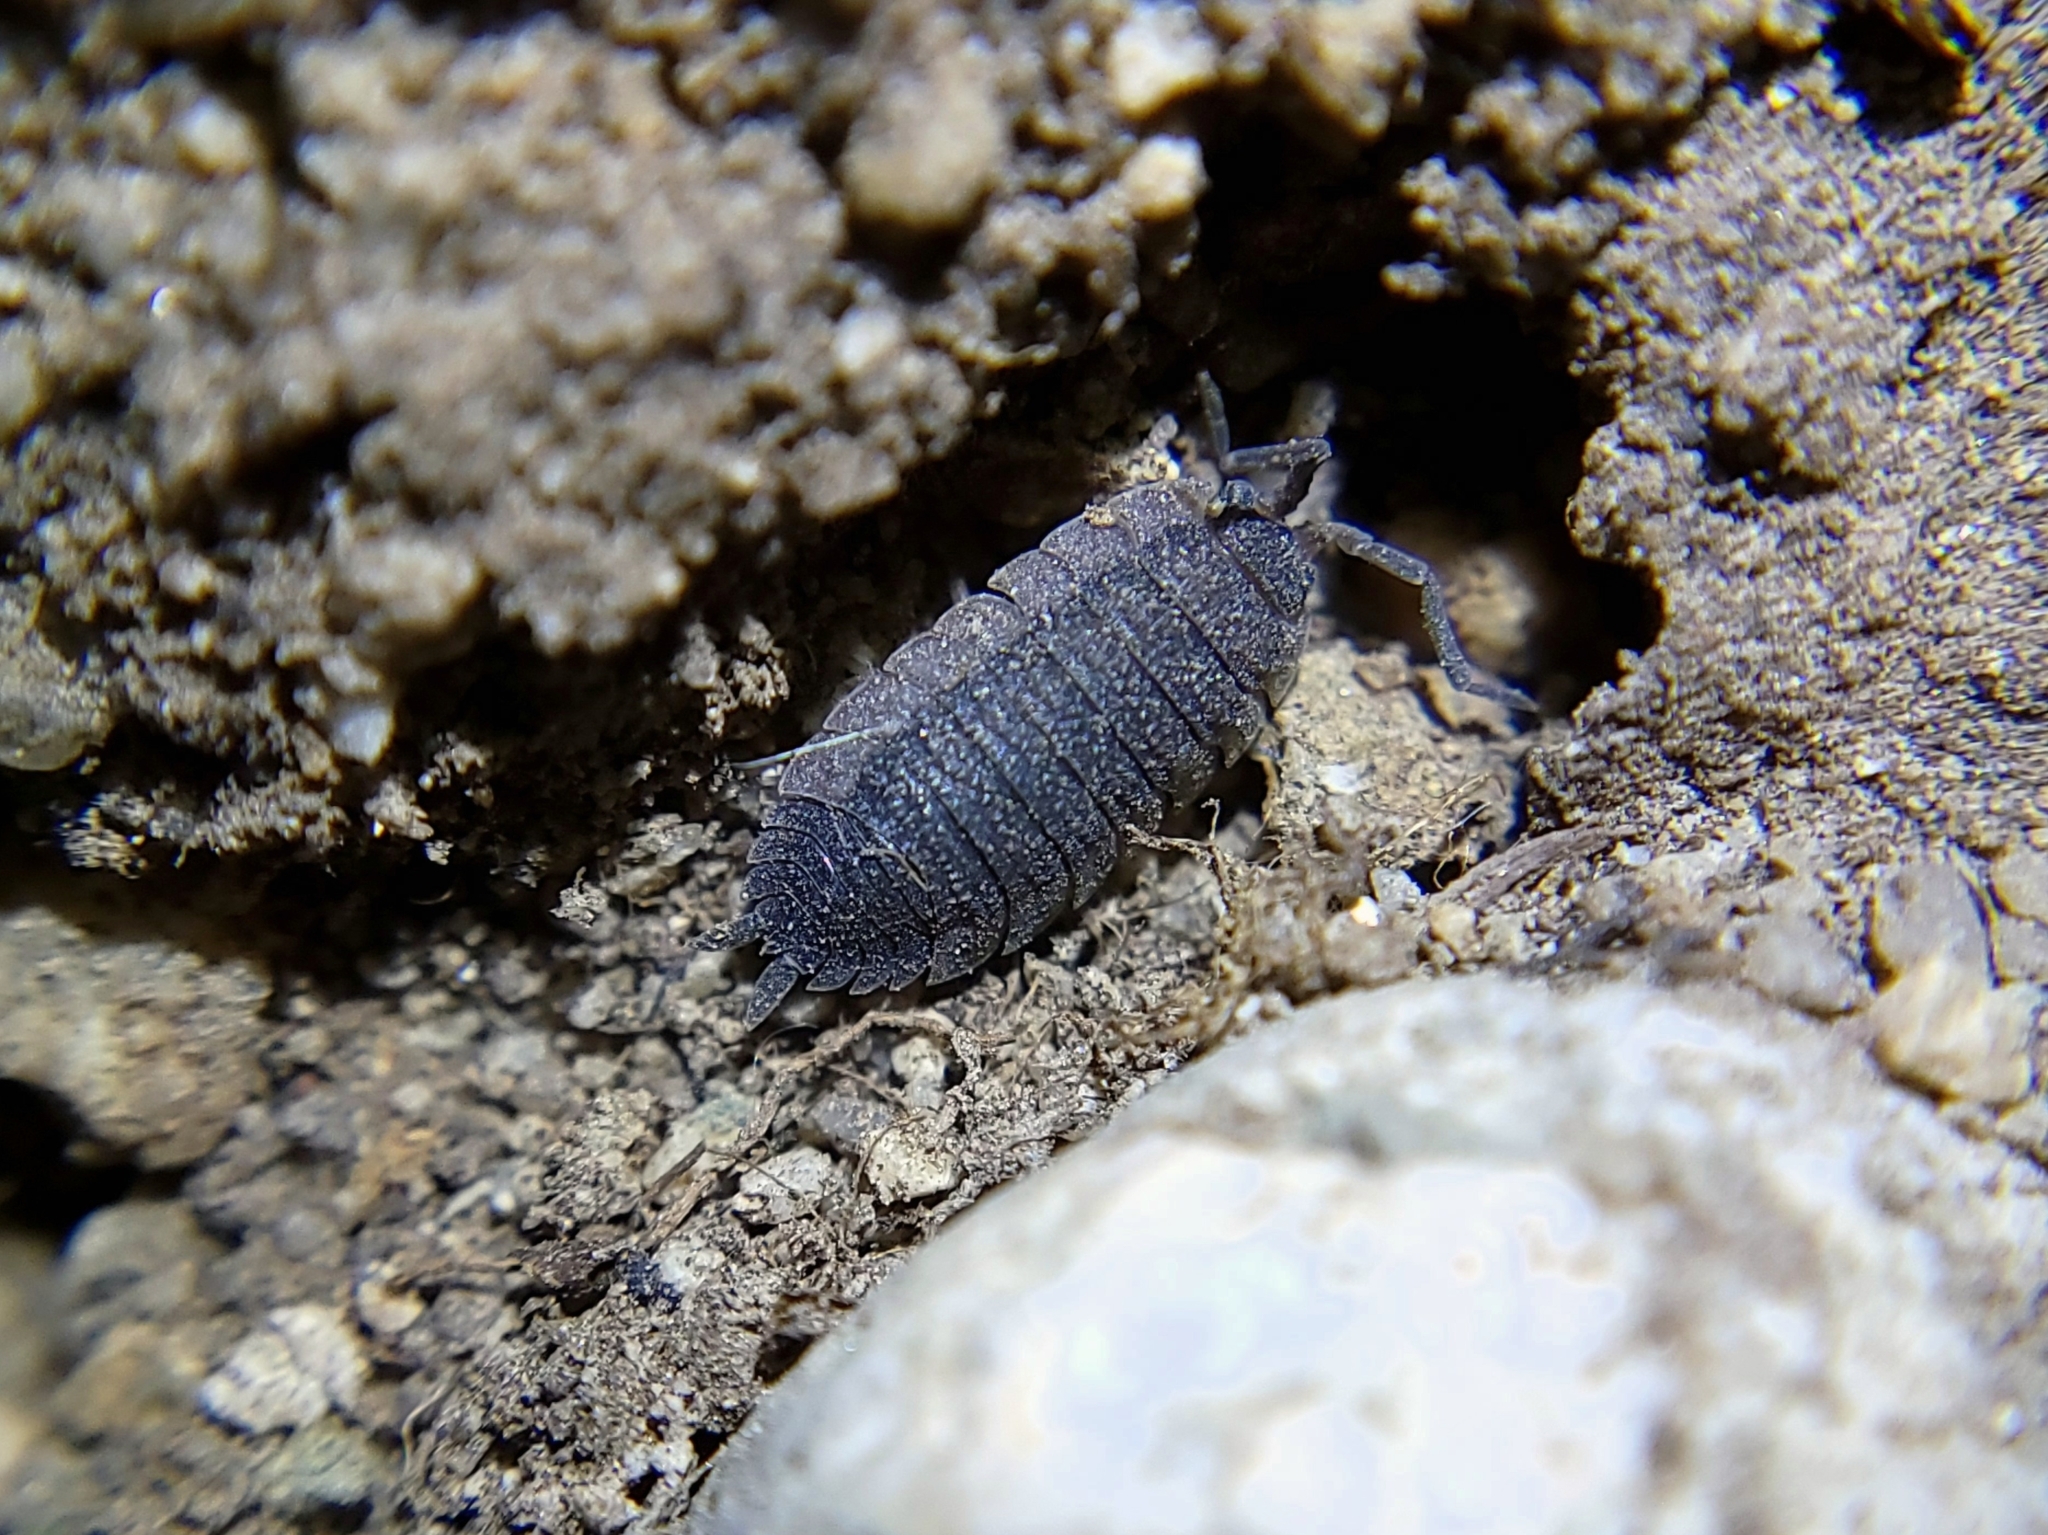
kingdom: Animalia
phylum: Arthropoda
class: Malacostraca
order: Isopoda
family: Porcellionidae
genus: Porcellio
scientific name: Porcellio scaber
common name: Common rough woodlouse
